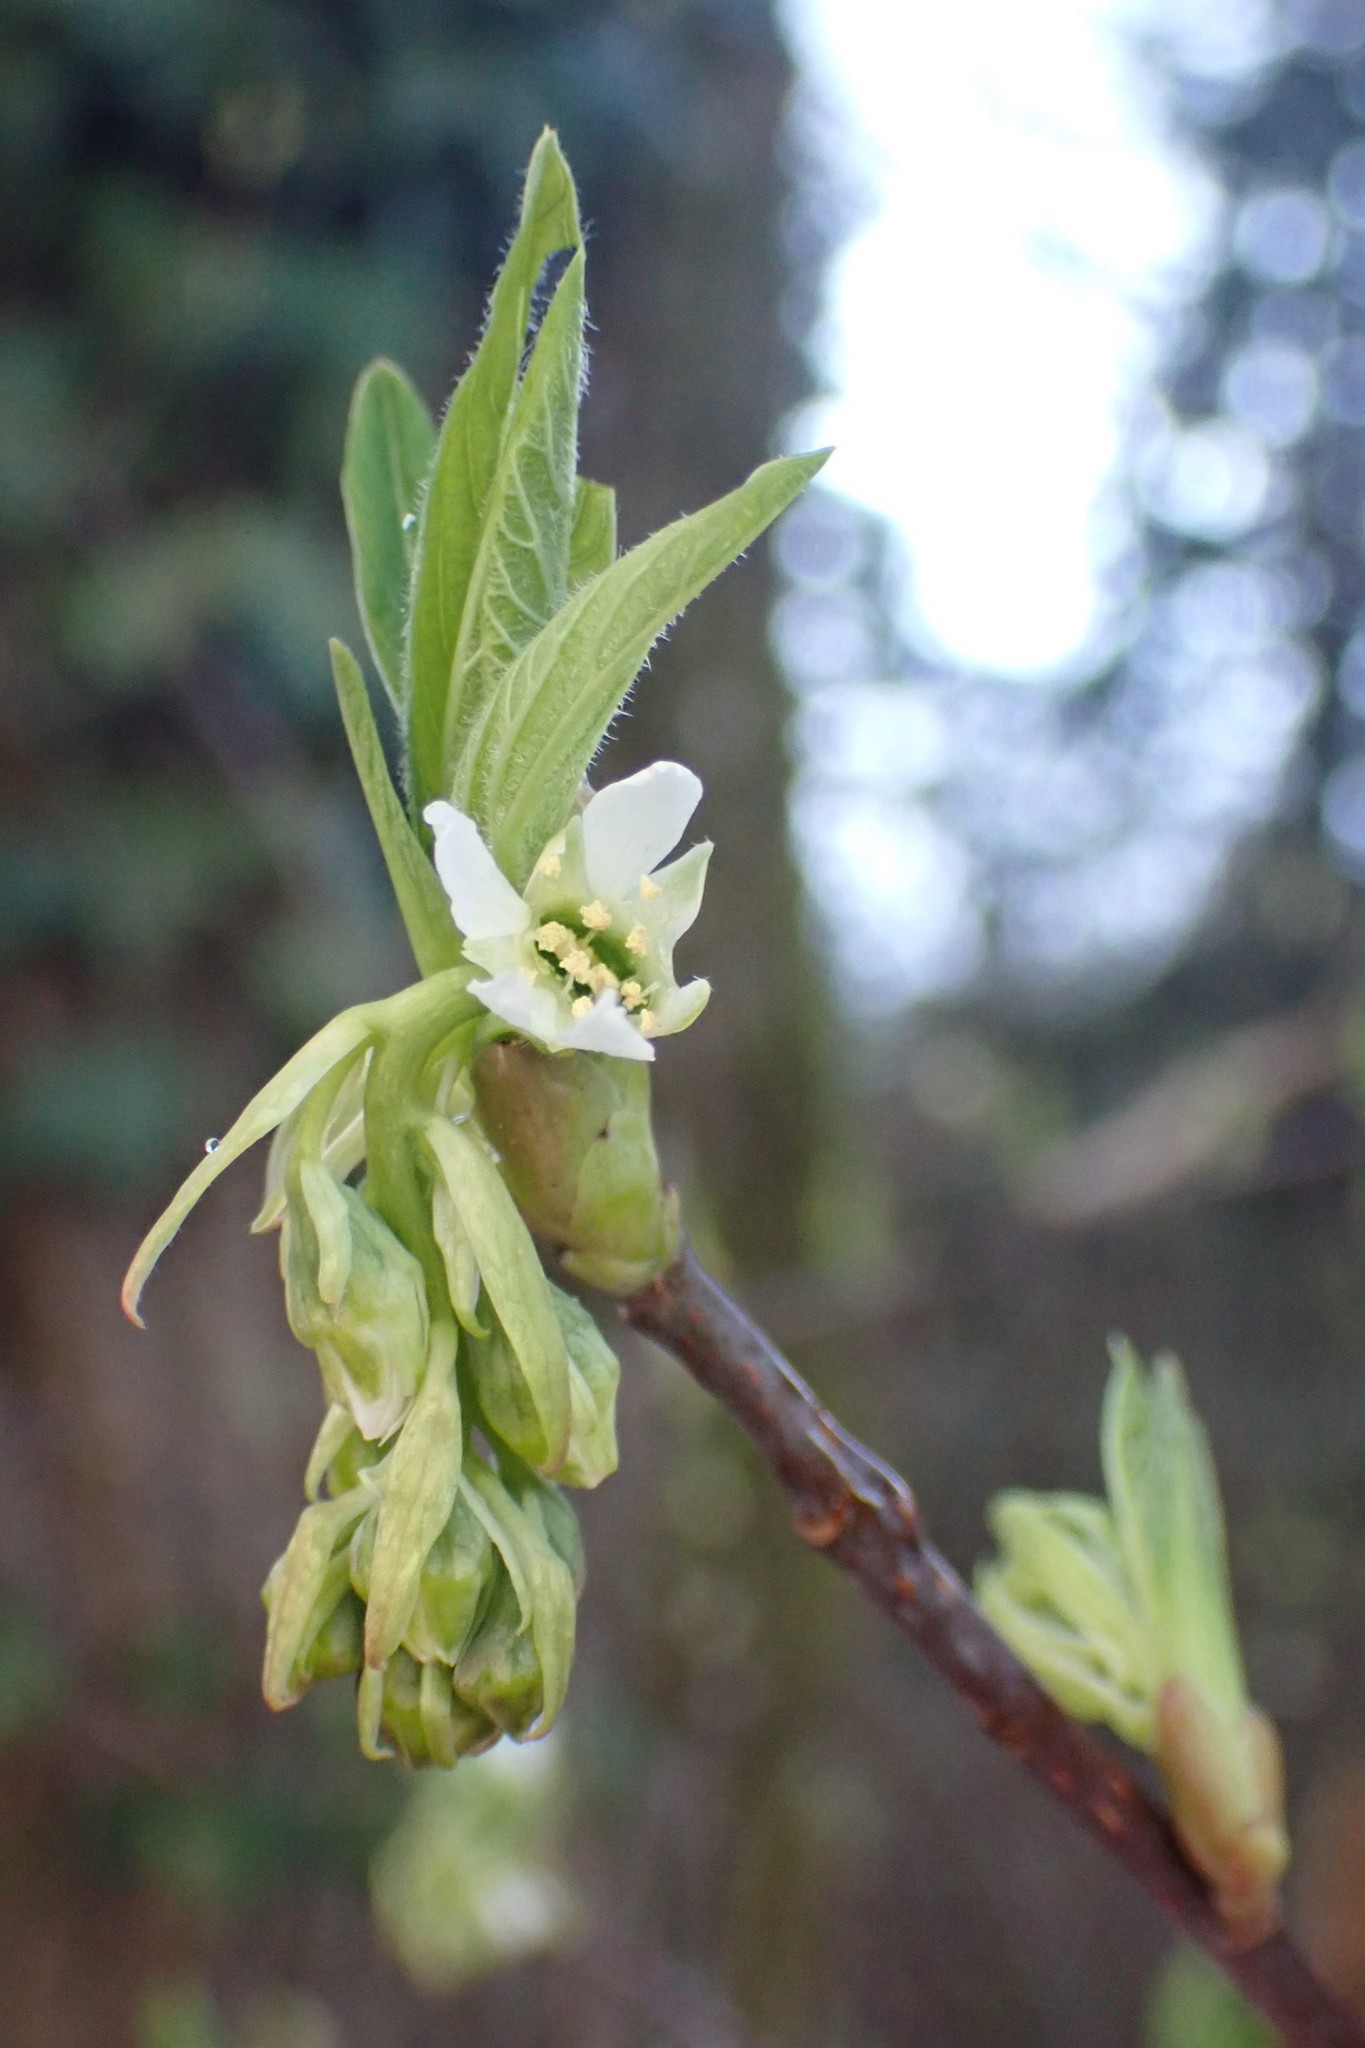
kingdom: Plantae
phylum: Tracheophyta
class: Magnoliopsida
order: Rosales
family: Rosaceae
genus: Oemleria
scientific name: Oemleria cerasiformis
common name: Osoberry
